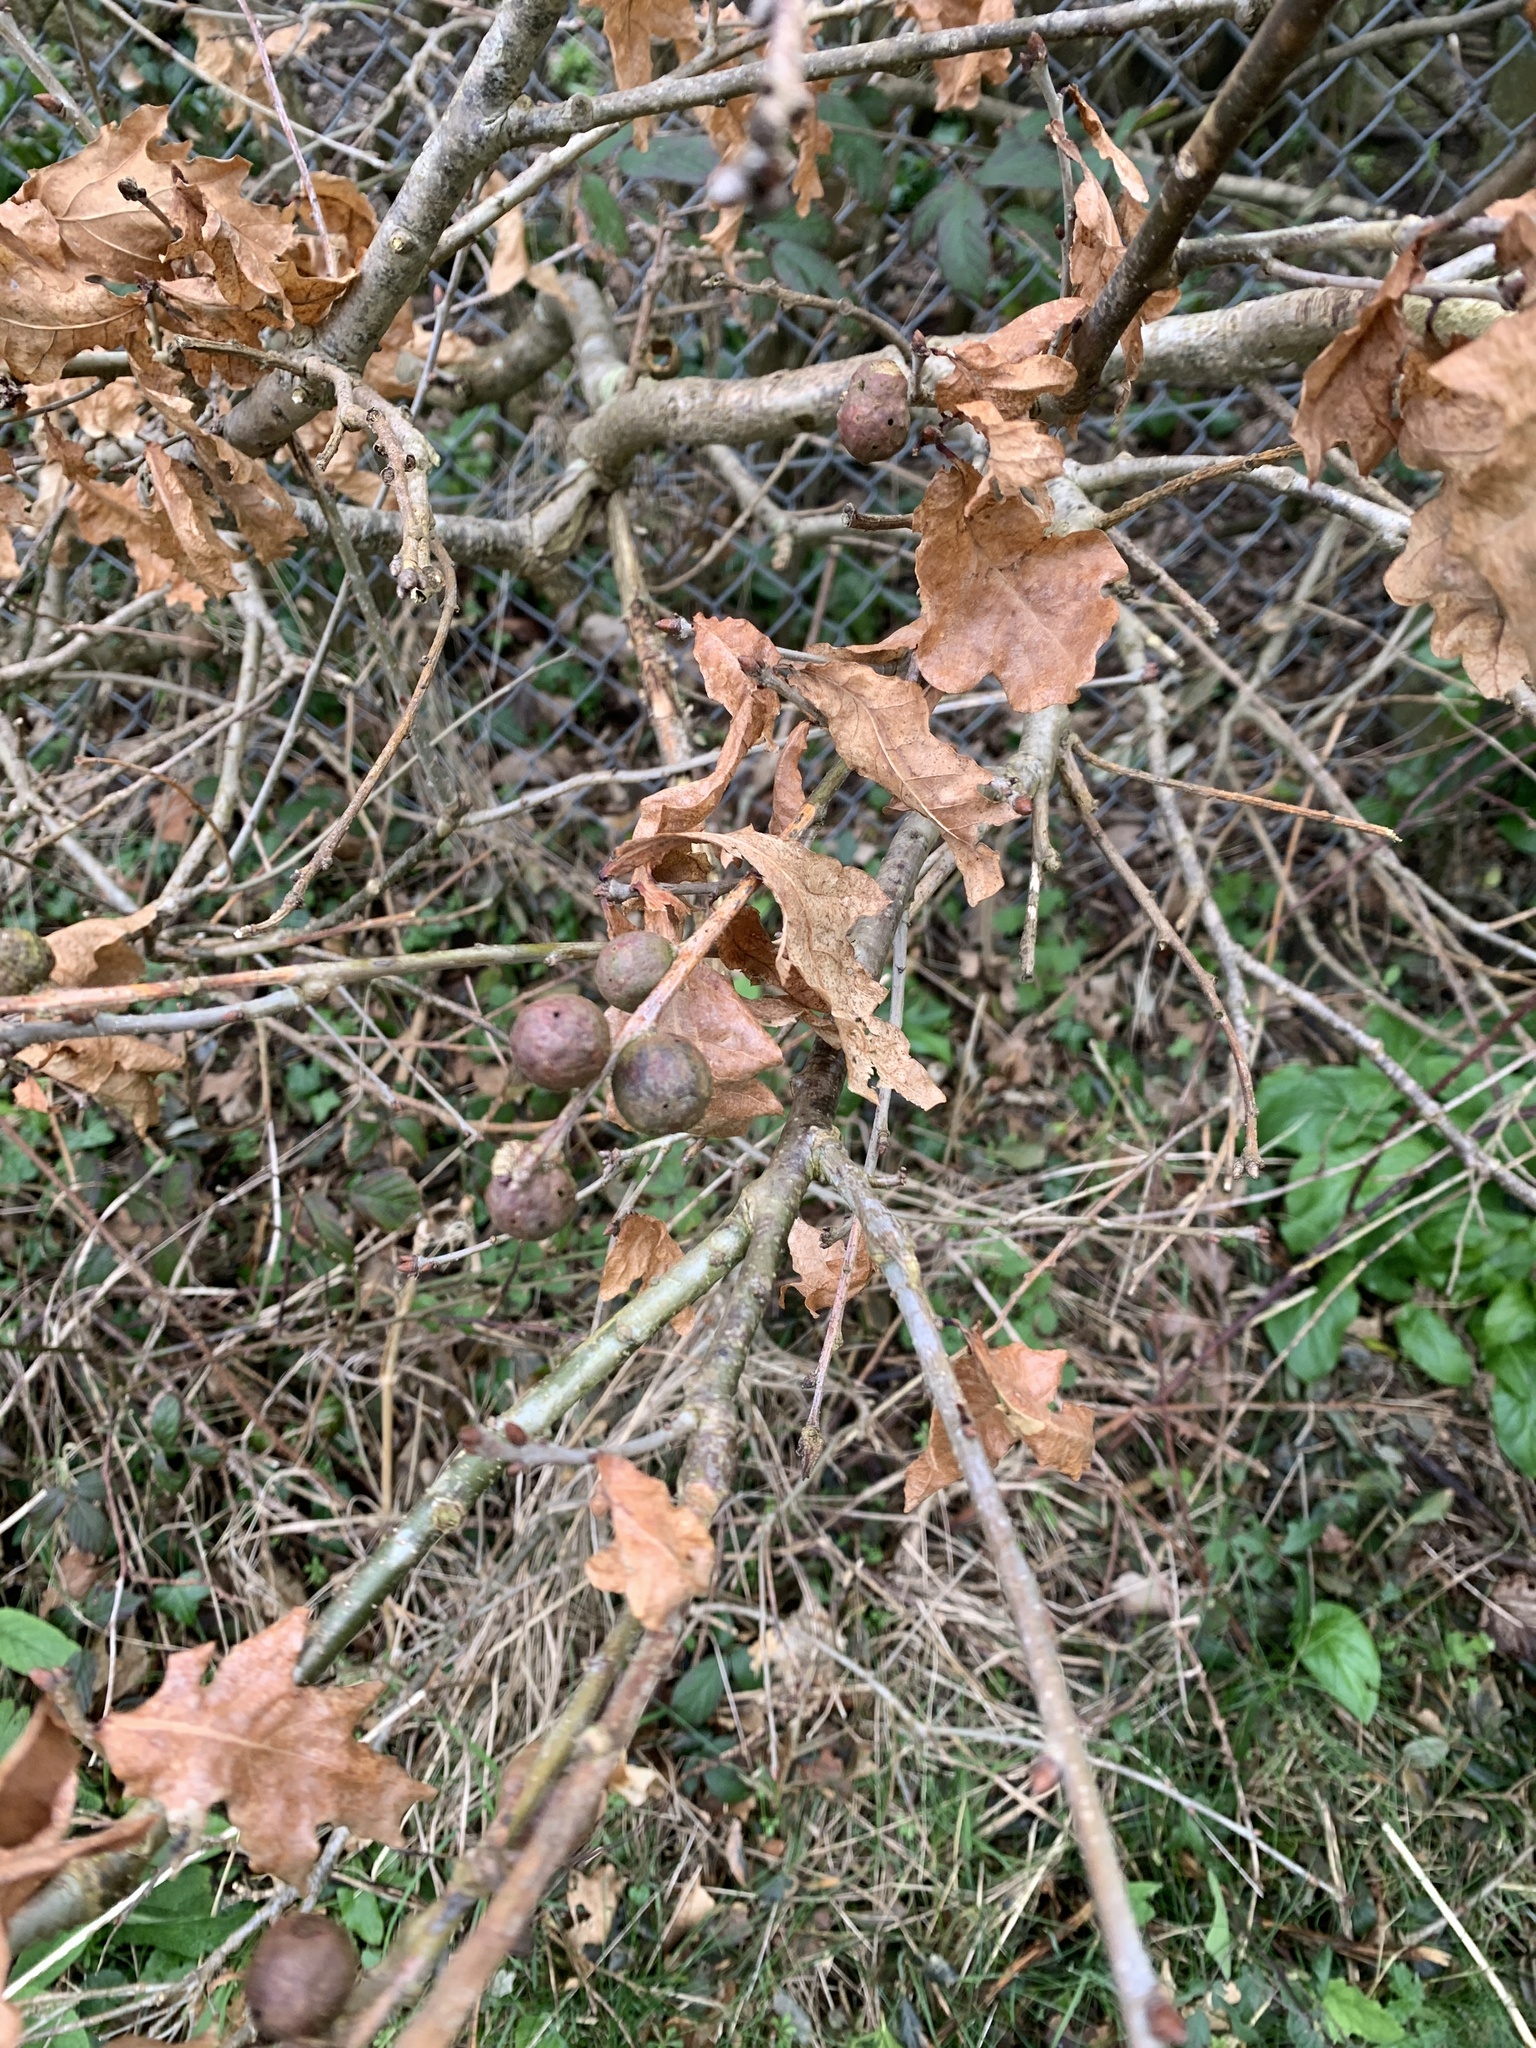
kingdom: Animalia
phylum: Arthropoda
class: Insecta
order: Hymenoptera
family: Cynipidae
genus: Andricus
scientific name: Andricus kollari
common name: Marble gall
